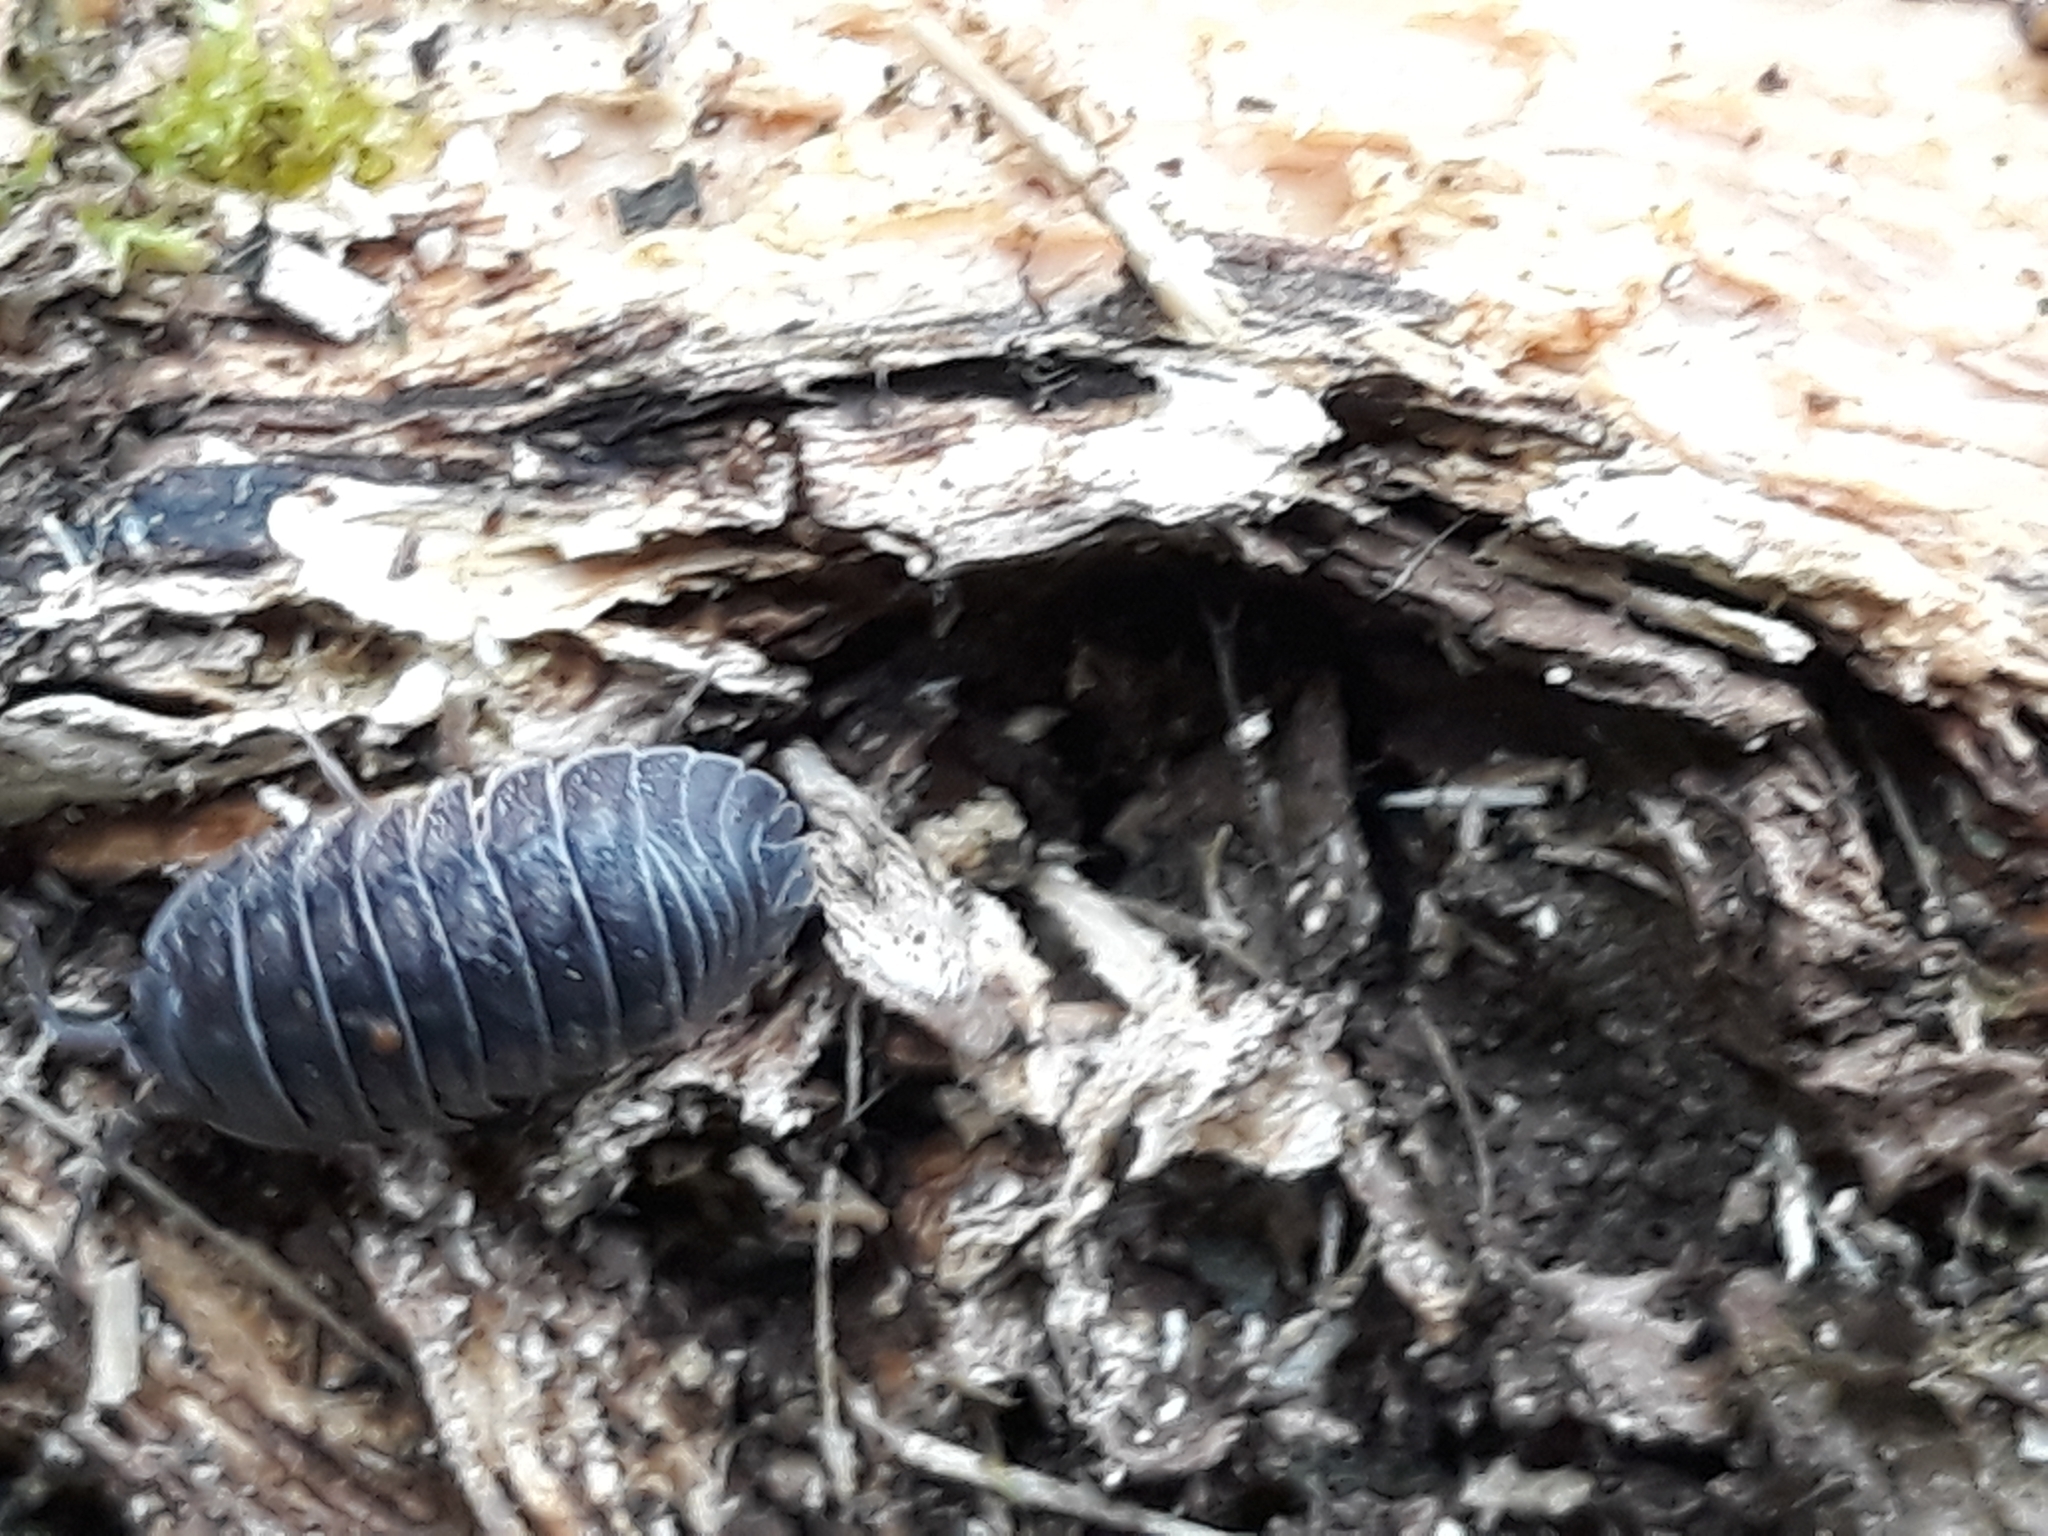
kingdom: Animalia
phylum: Arthropoda
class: Malacostraca
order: Isopoda
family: Armadillidiidae
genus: Armadillidium
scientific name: Armadillidium nasatum
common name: Isopod
